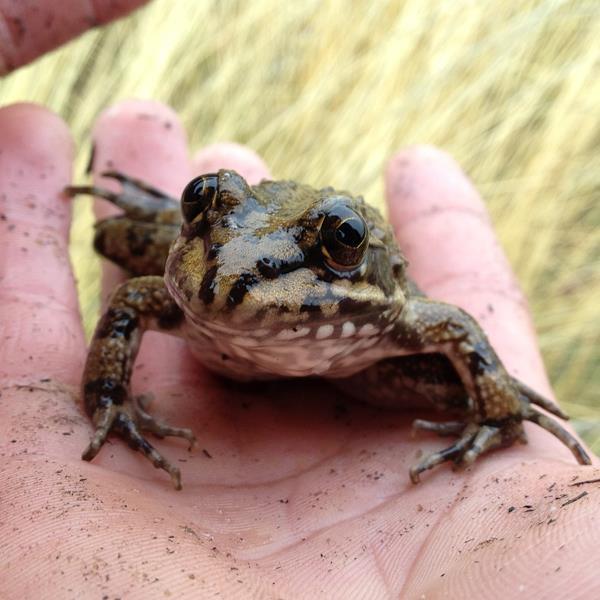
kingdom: Animalia
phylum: Chordata
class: Amphibia
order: Anura
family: Pyxicephalidae
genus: Amietia
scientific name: Amietia fuscigula
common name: Cape rana
